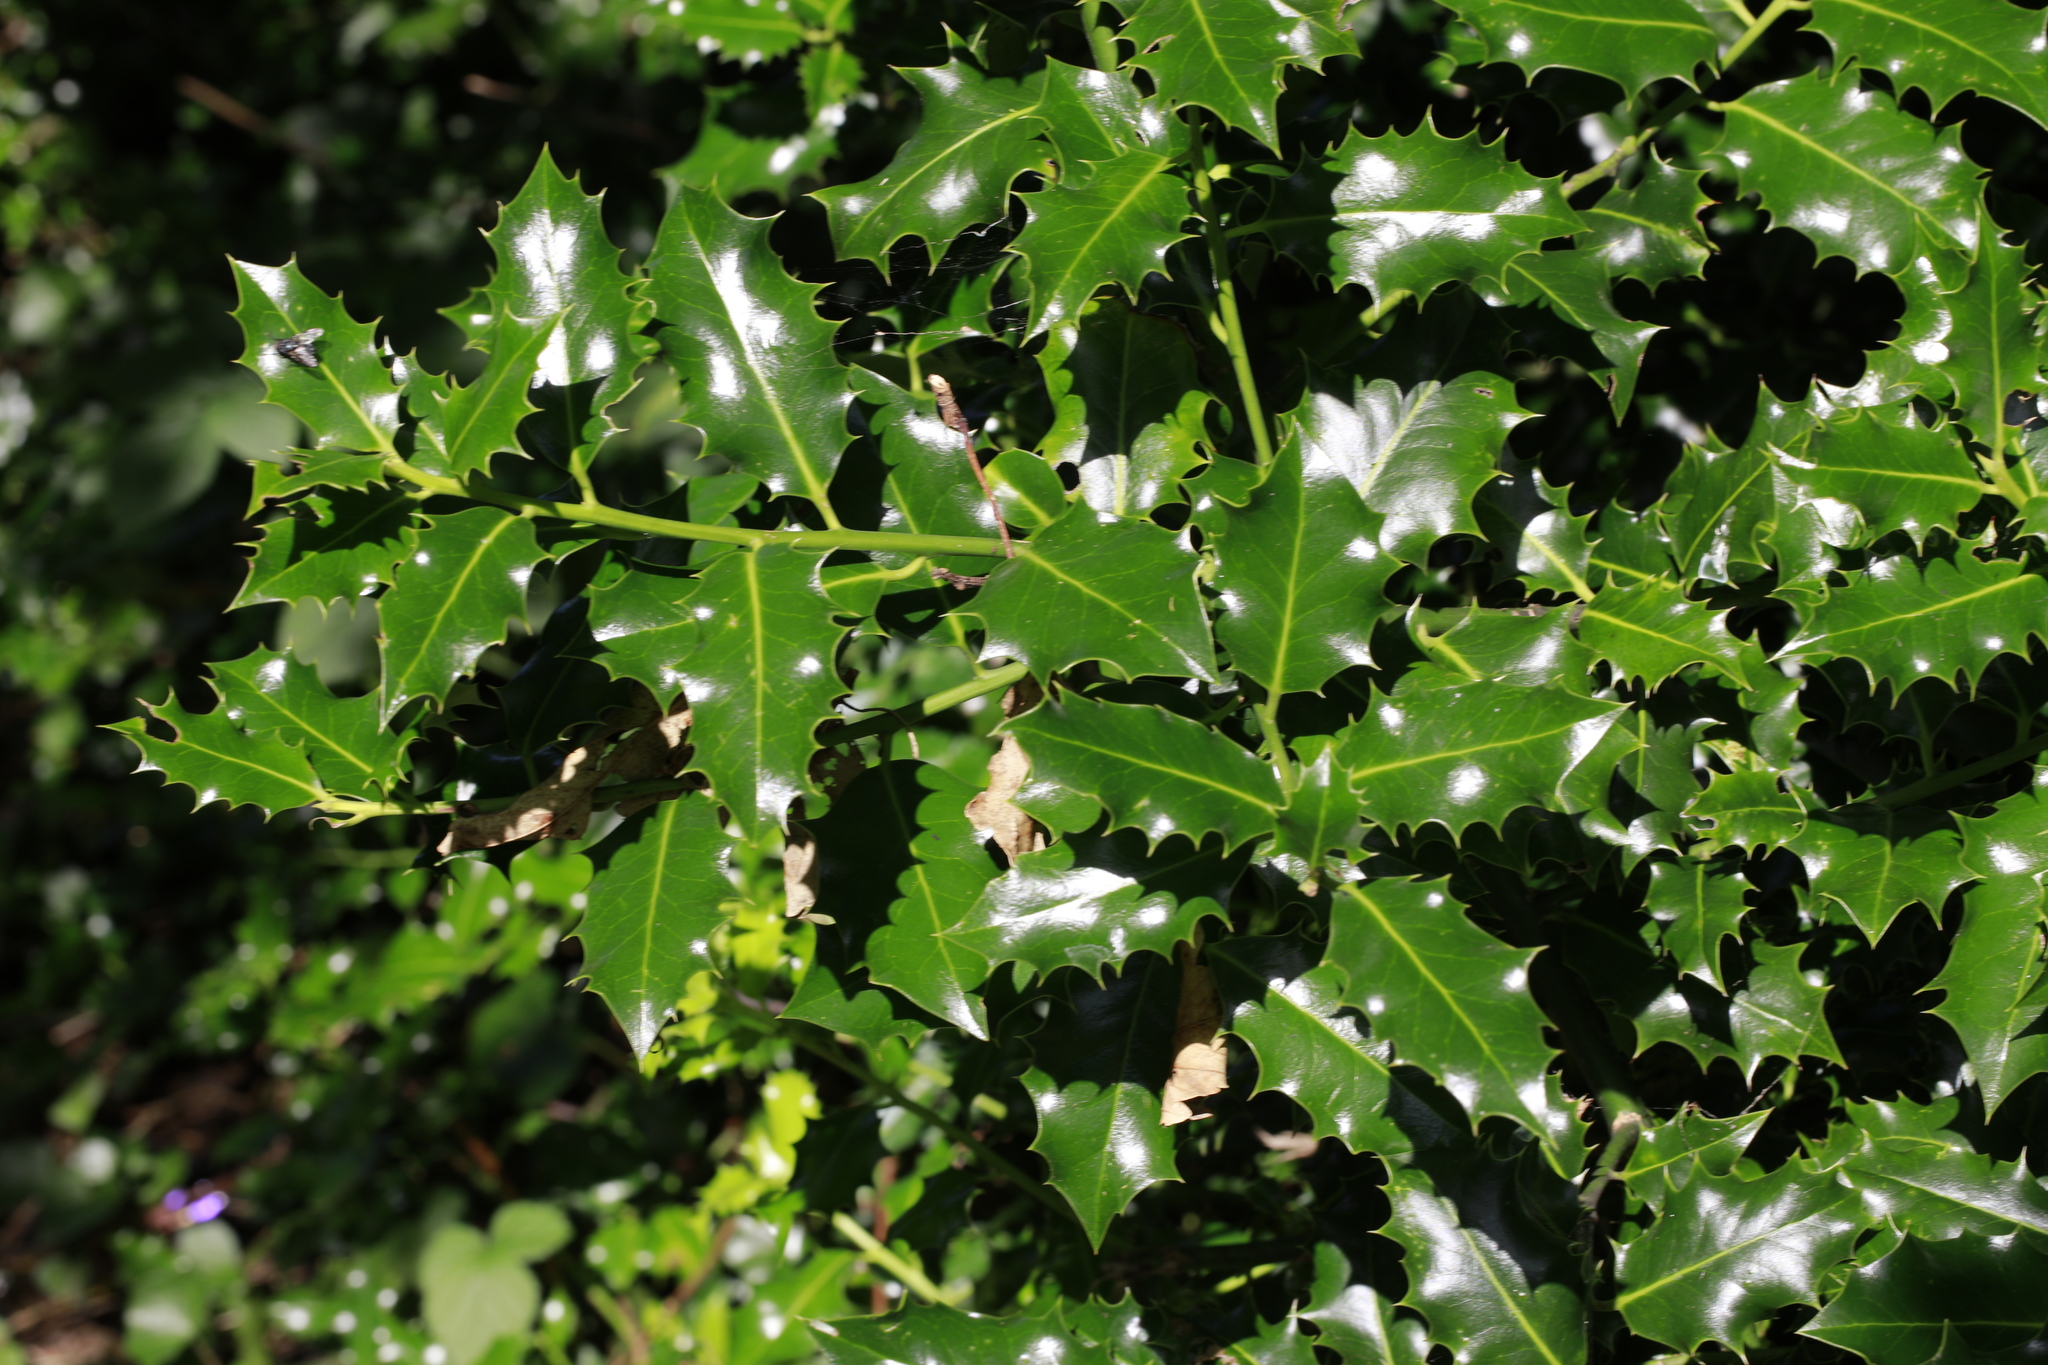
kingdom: Plantae
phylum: Tracheophyta
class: Magnoliopsida
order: Aquifoliales
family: Aquifoliaceae
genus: Ilex
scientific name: Ilex aquifolium
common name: English holly
